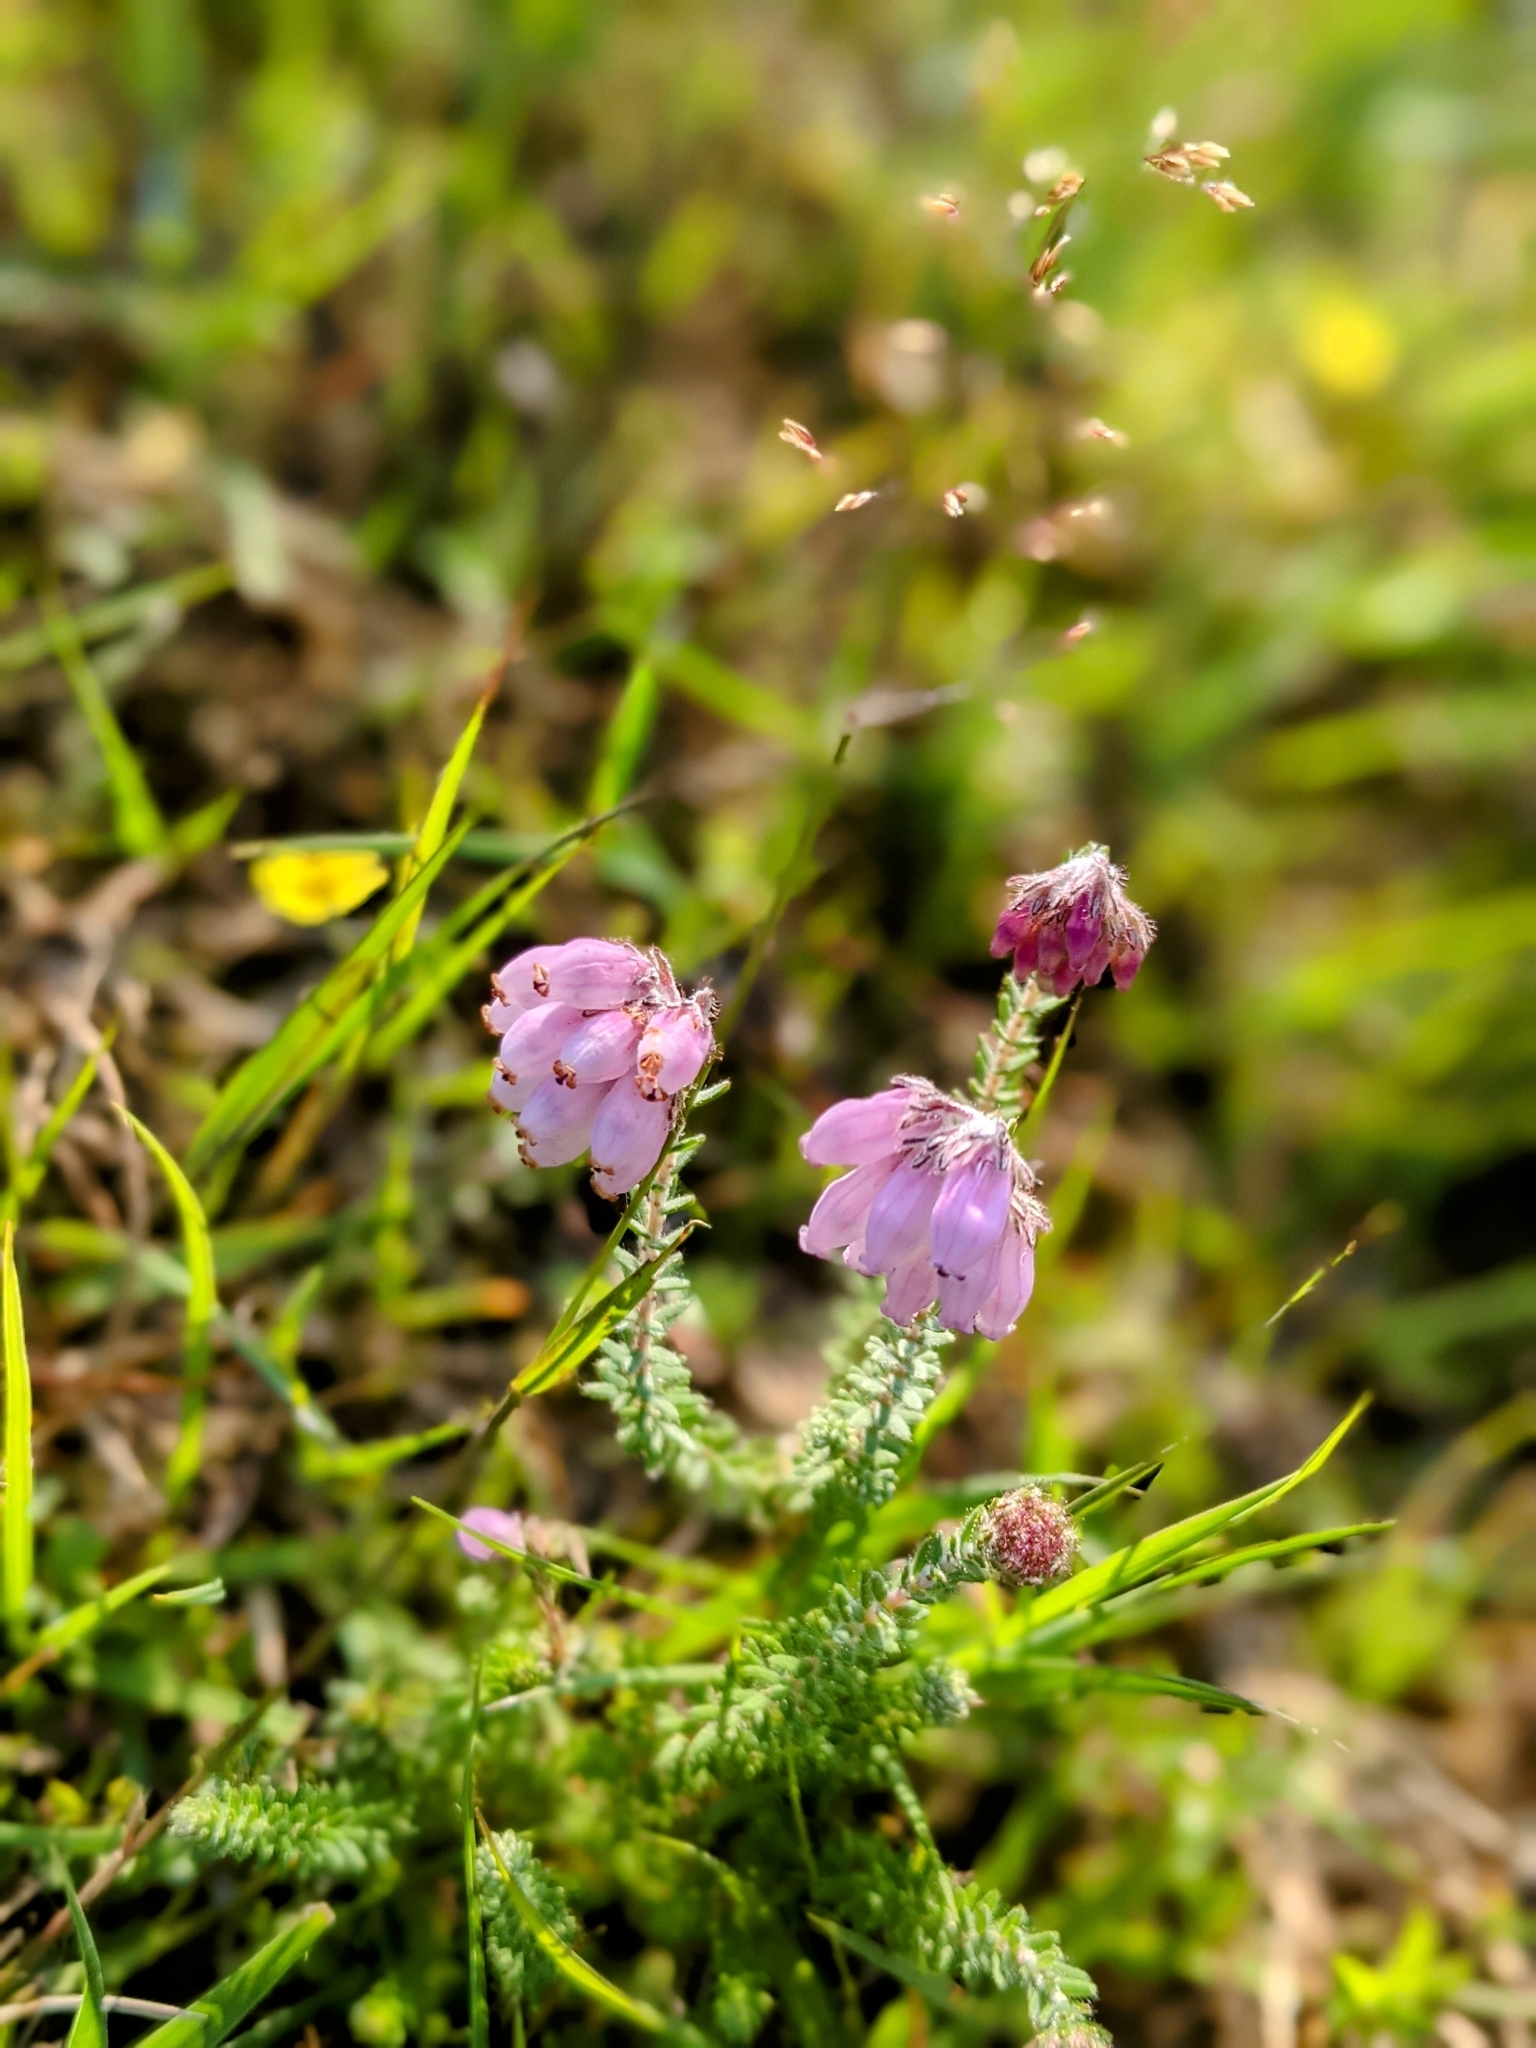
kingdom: Plantae
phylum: Tracheophyta
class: Magnoliopsida
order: Ericales
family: Ericaceae
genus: Erica
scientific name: Erica tetralix
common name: Cross-leaved heath
